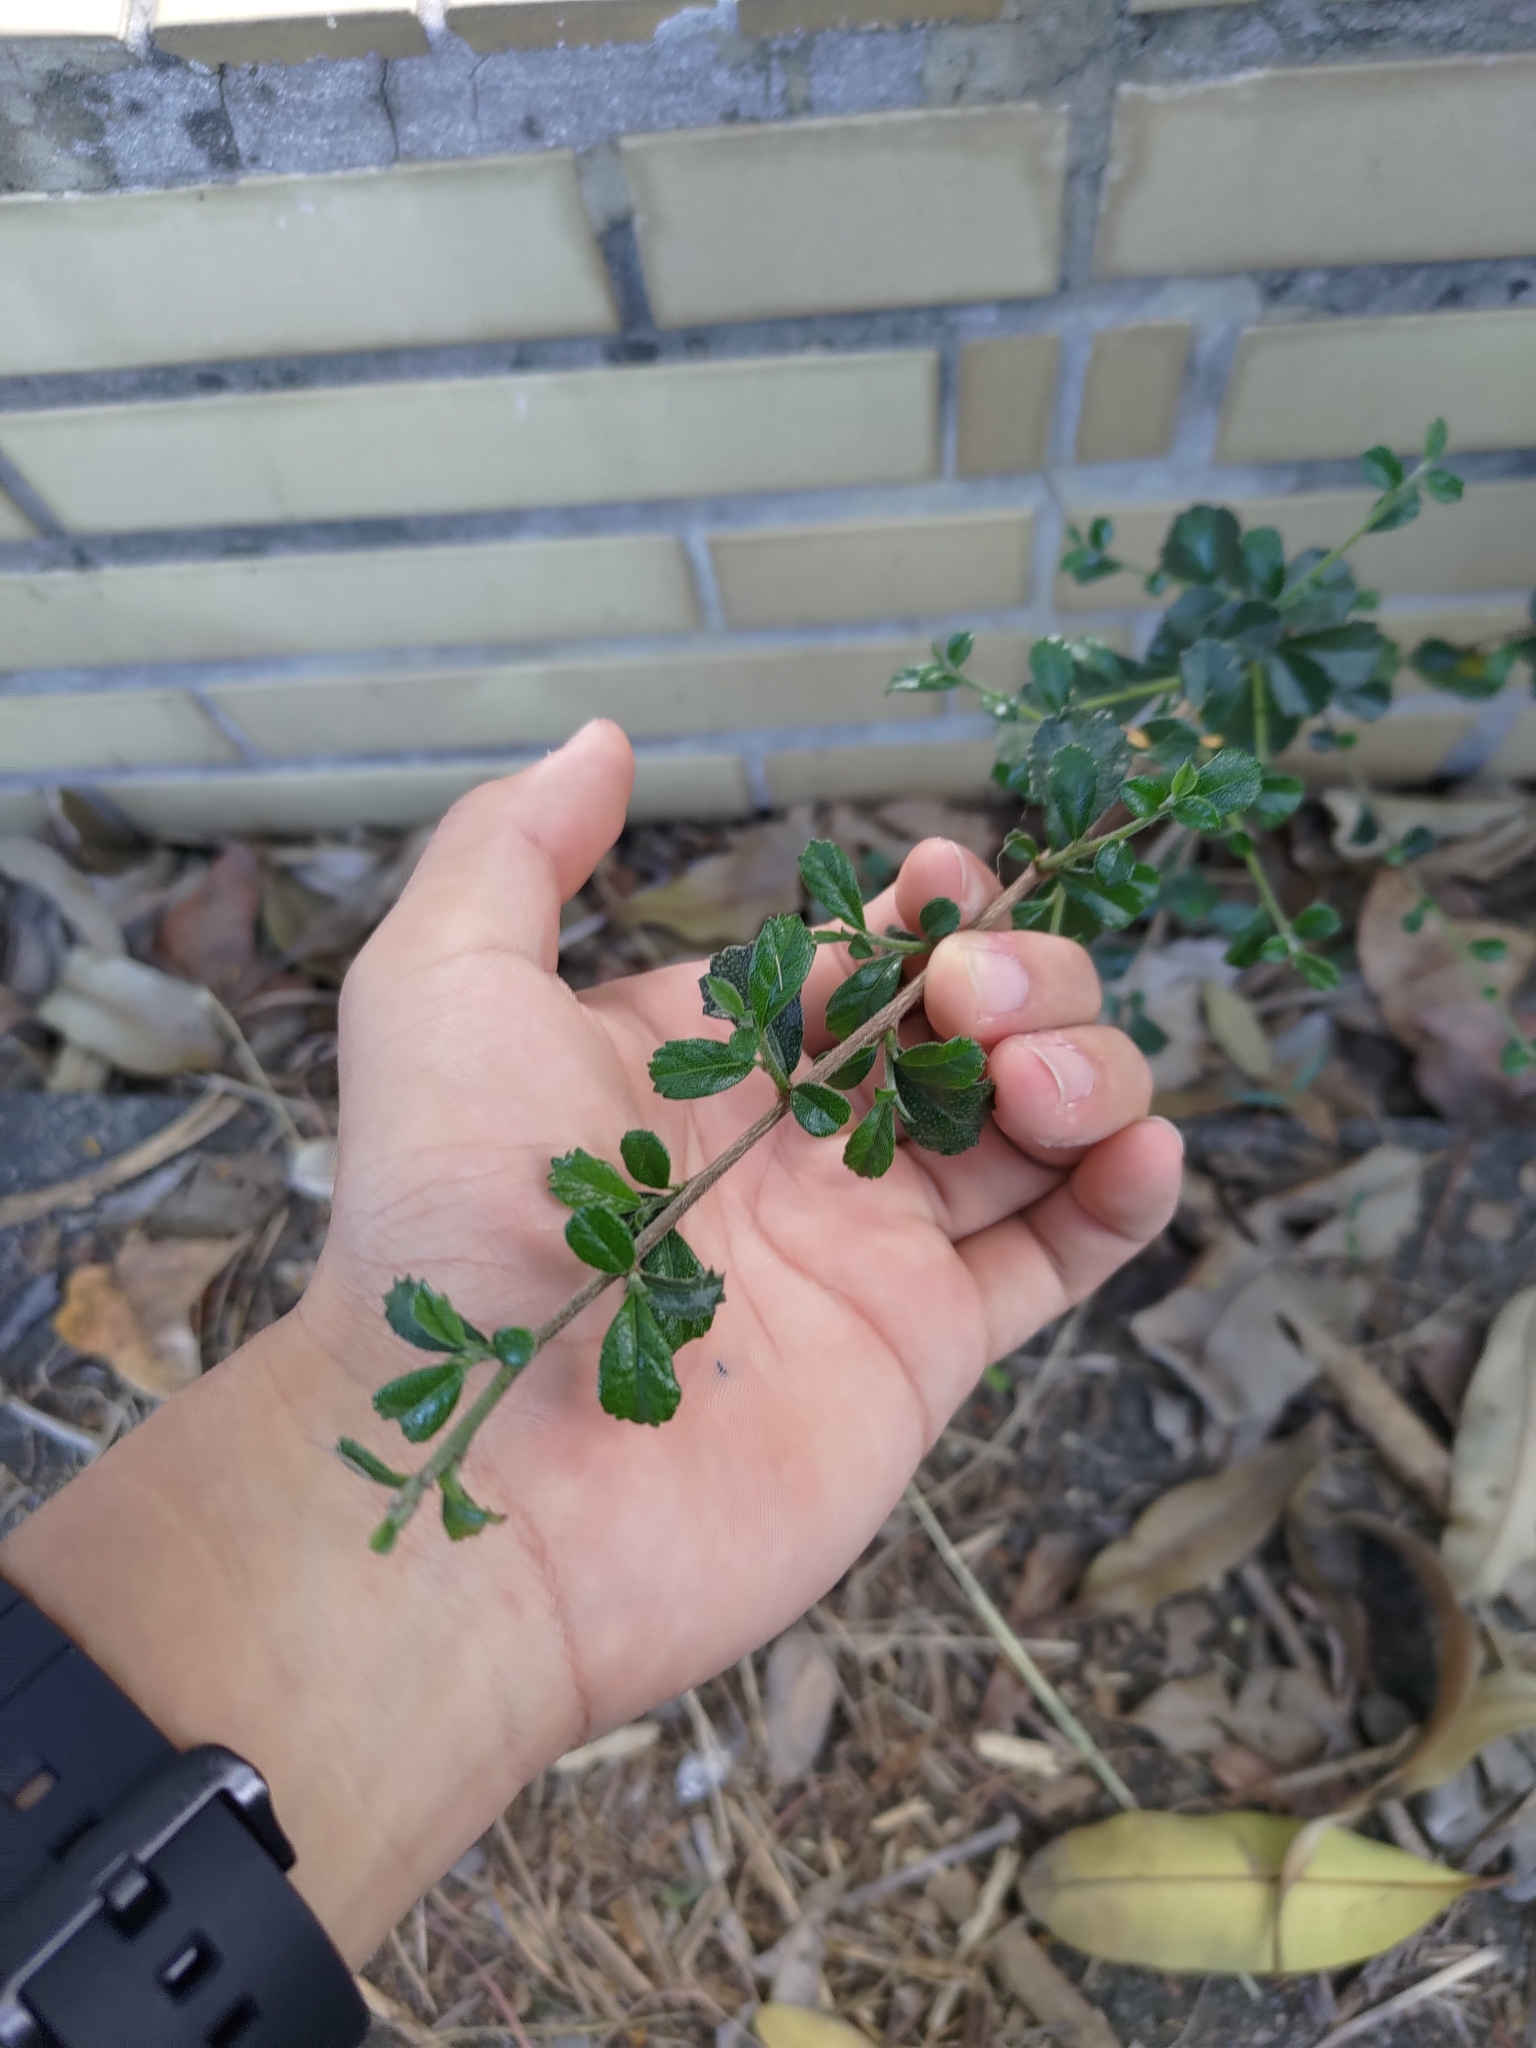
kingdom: Plantae
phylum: Tracheophyta
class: Magnoliopsida
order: Boraginales
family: Ehretiaceae
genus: Ehretia
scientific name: Ehretia microphylla
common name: Fukien-tea
